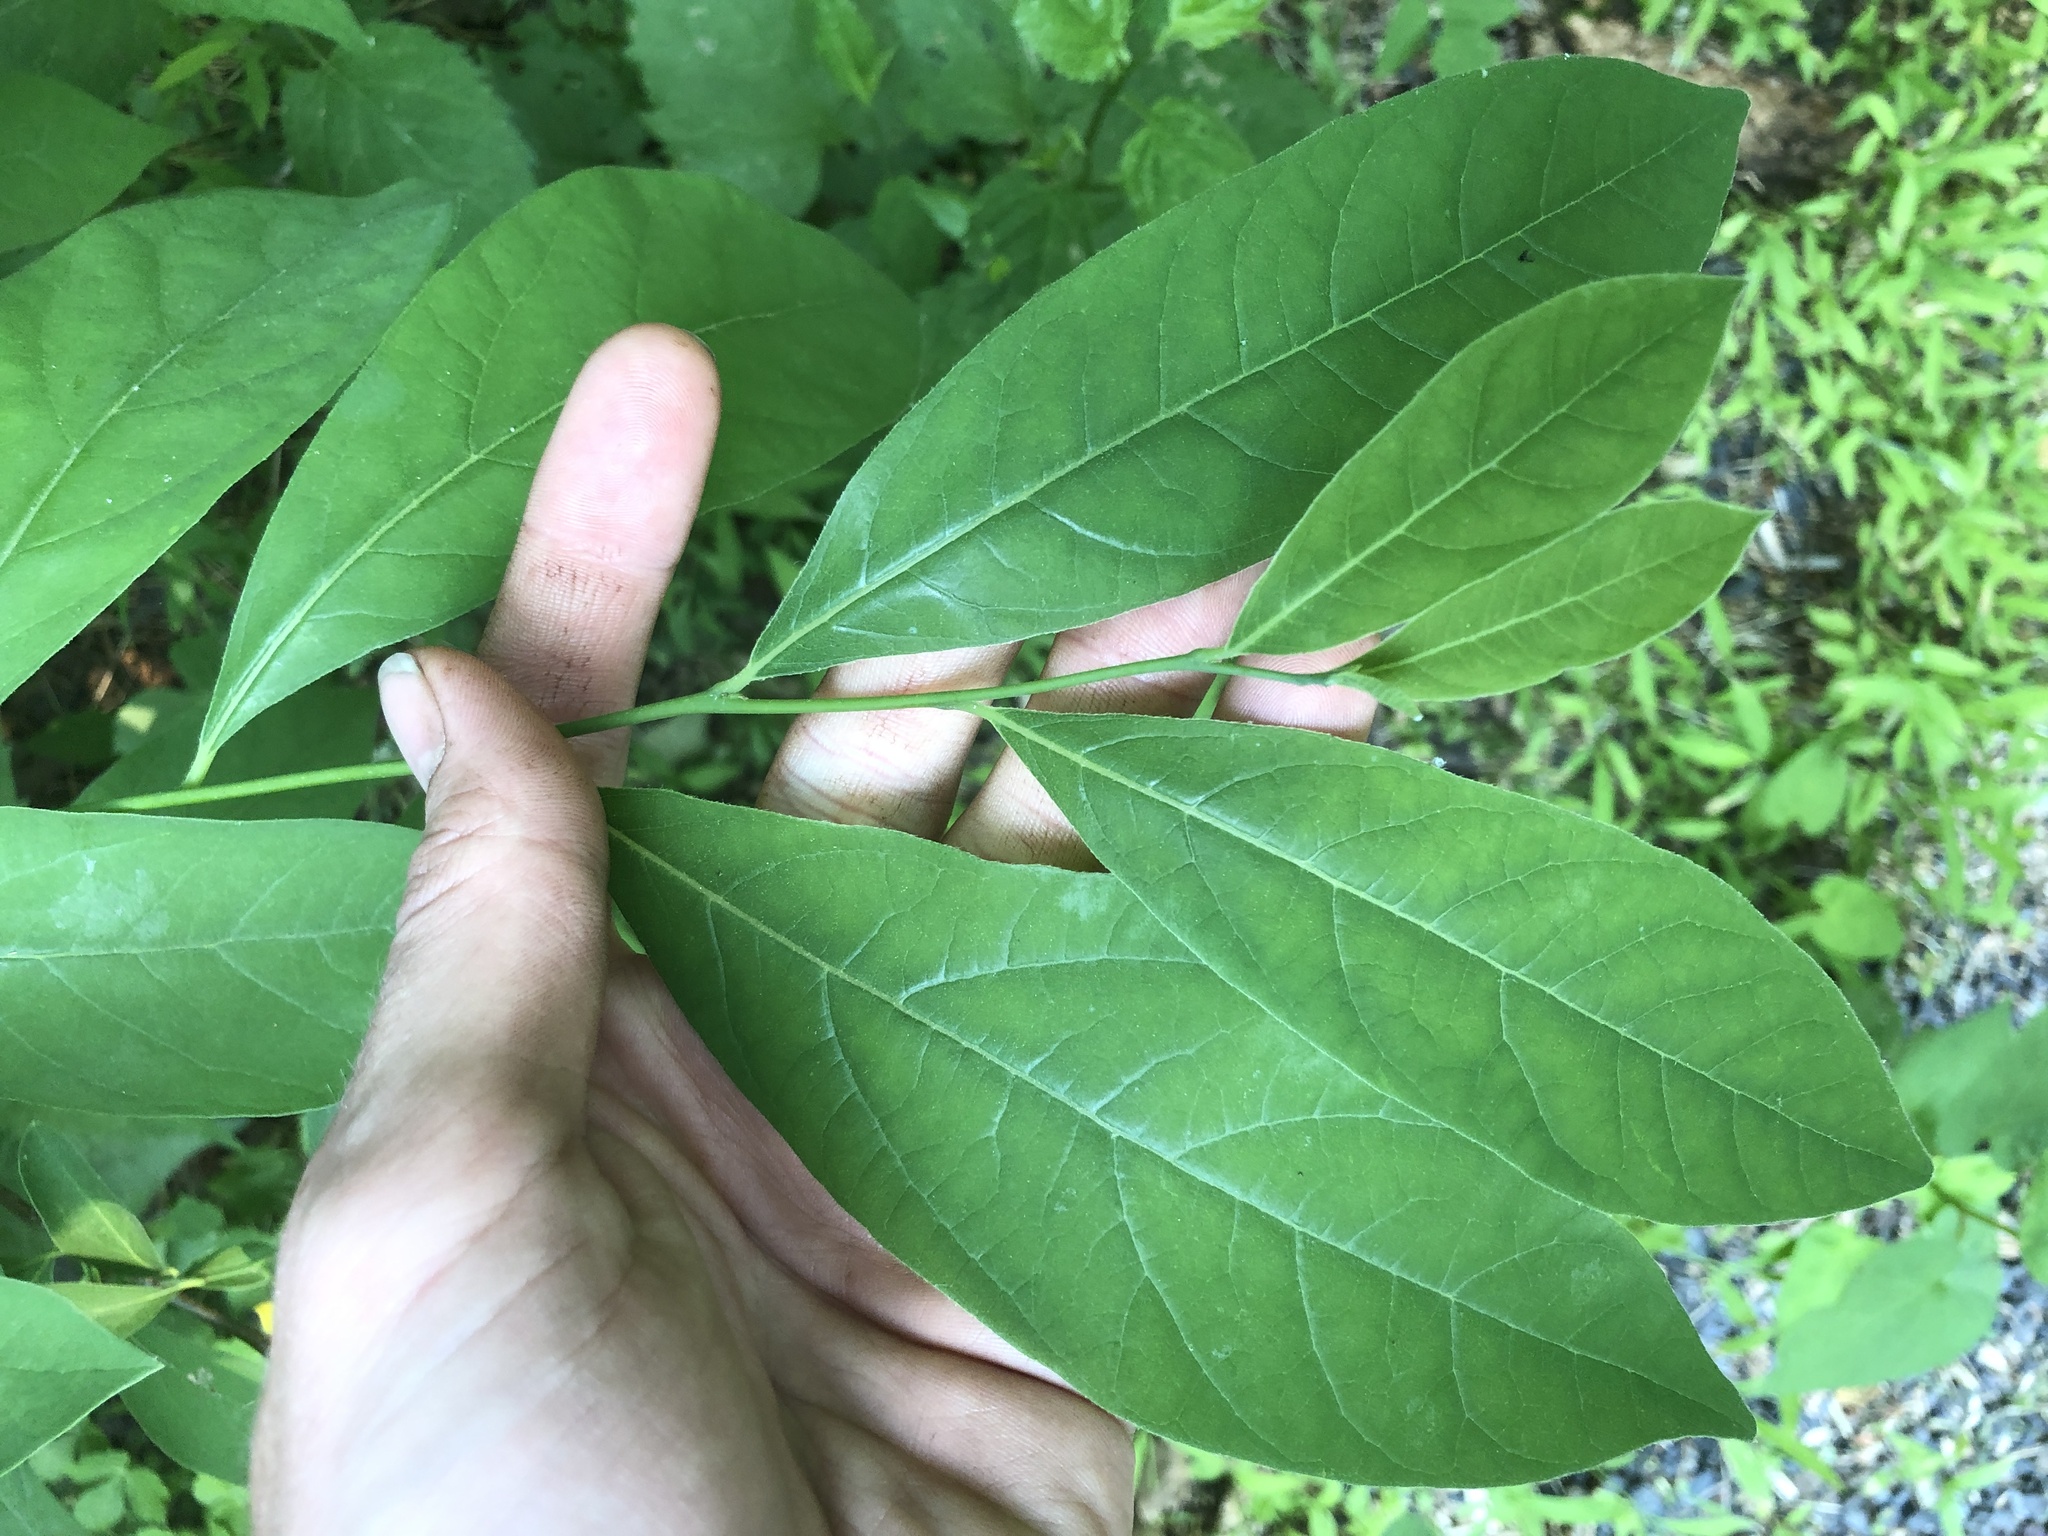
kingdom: Plantae
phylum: Tracheophyta
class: Magnoliopsida
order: Laurales
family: Lauraceae
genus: Lindera
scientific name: Lindera benzoin
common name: Spicebush
